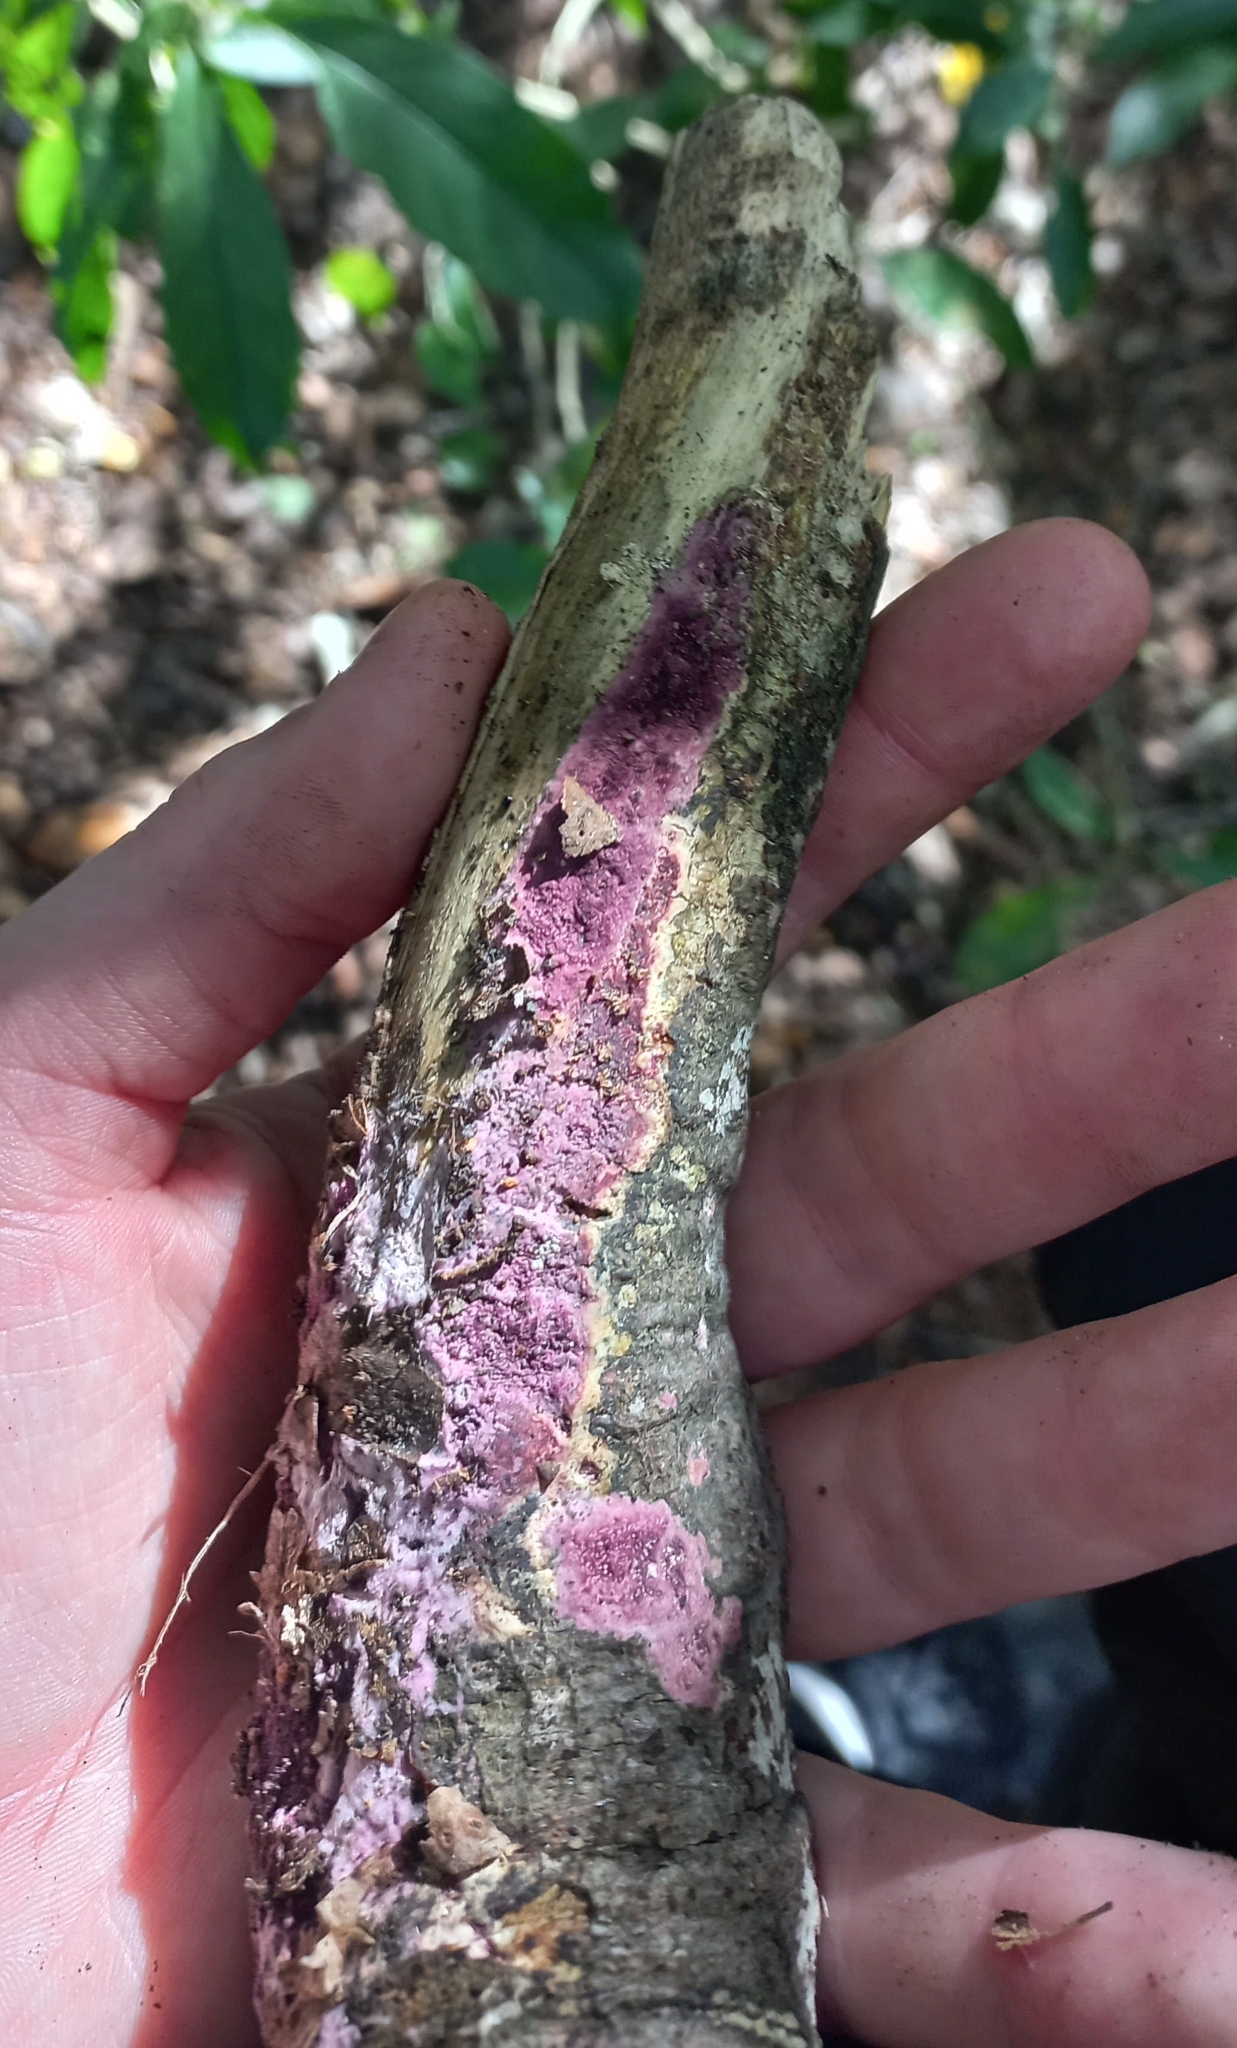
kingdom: Fungi
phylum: Basidiomycota
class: Agaricomycetes
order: Polyporales
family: Irpicaceae
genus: Byssomerulius
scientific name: Byssomerulius psittacinus
